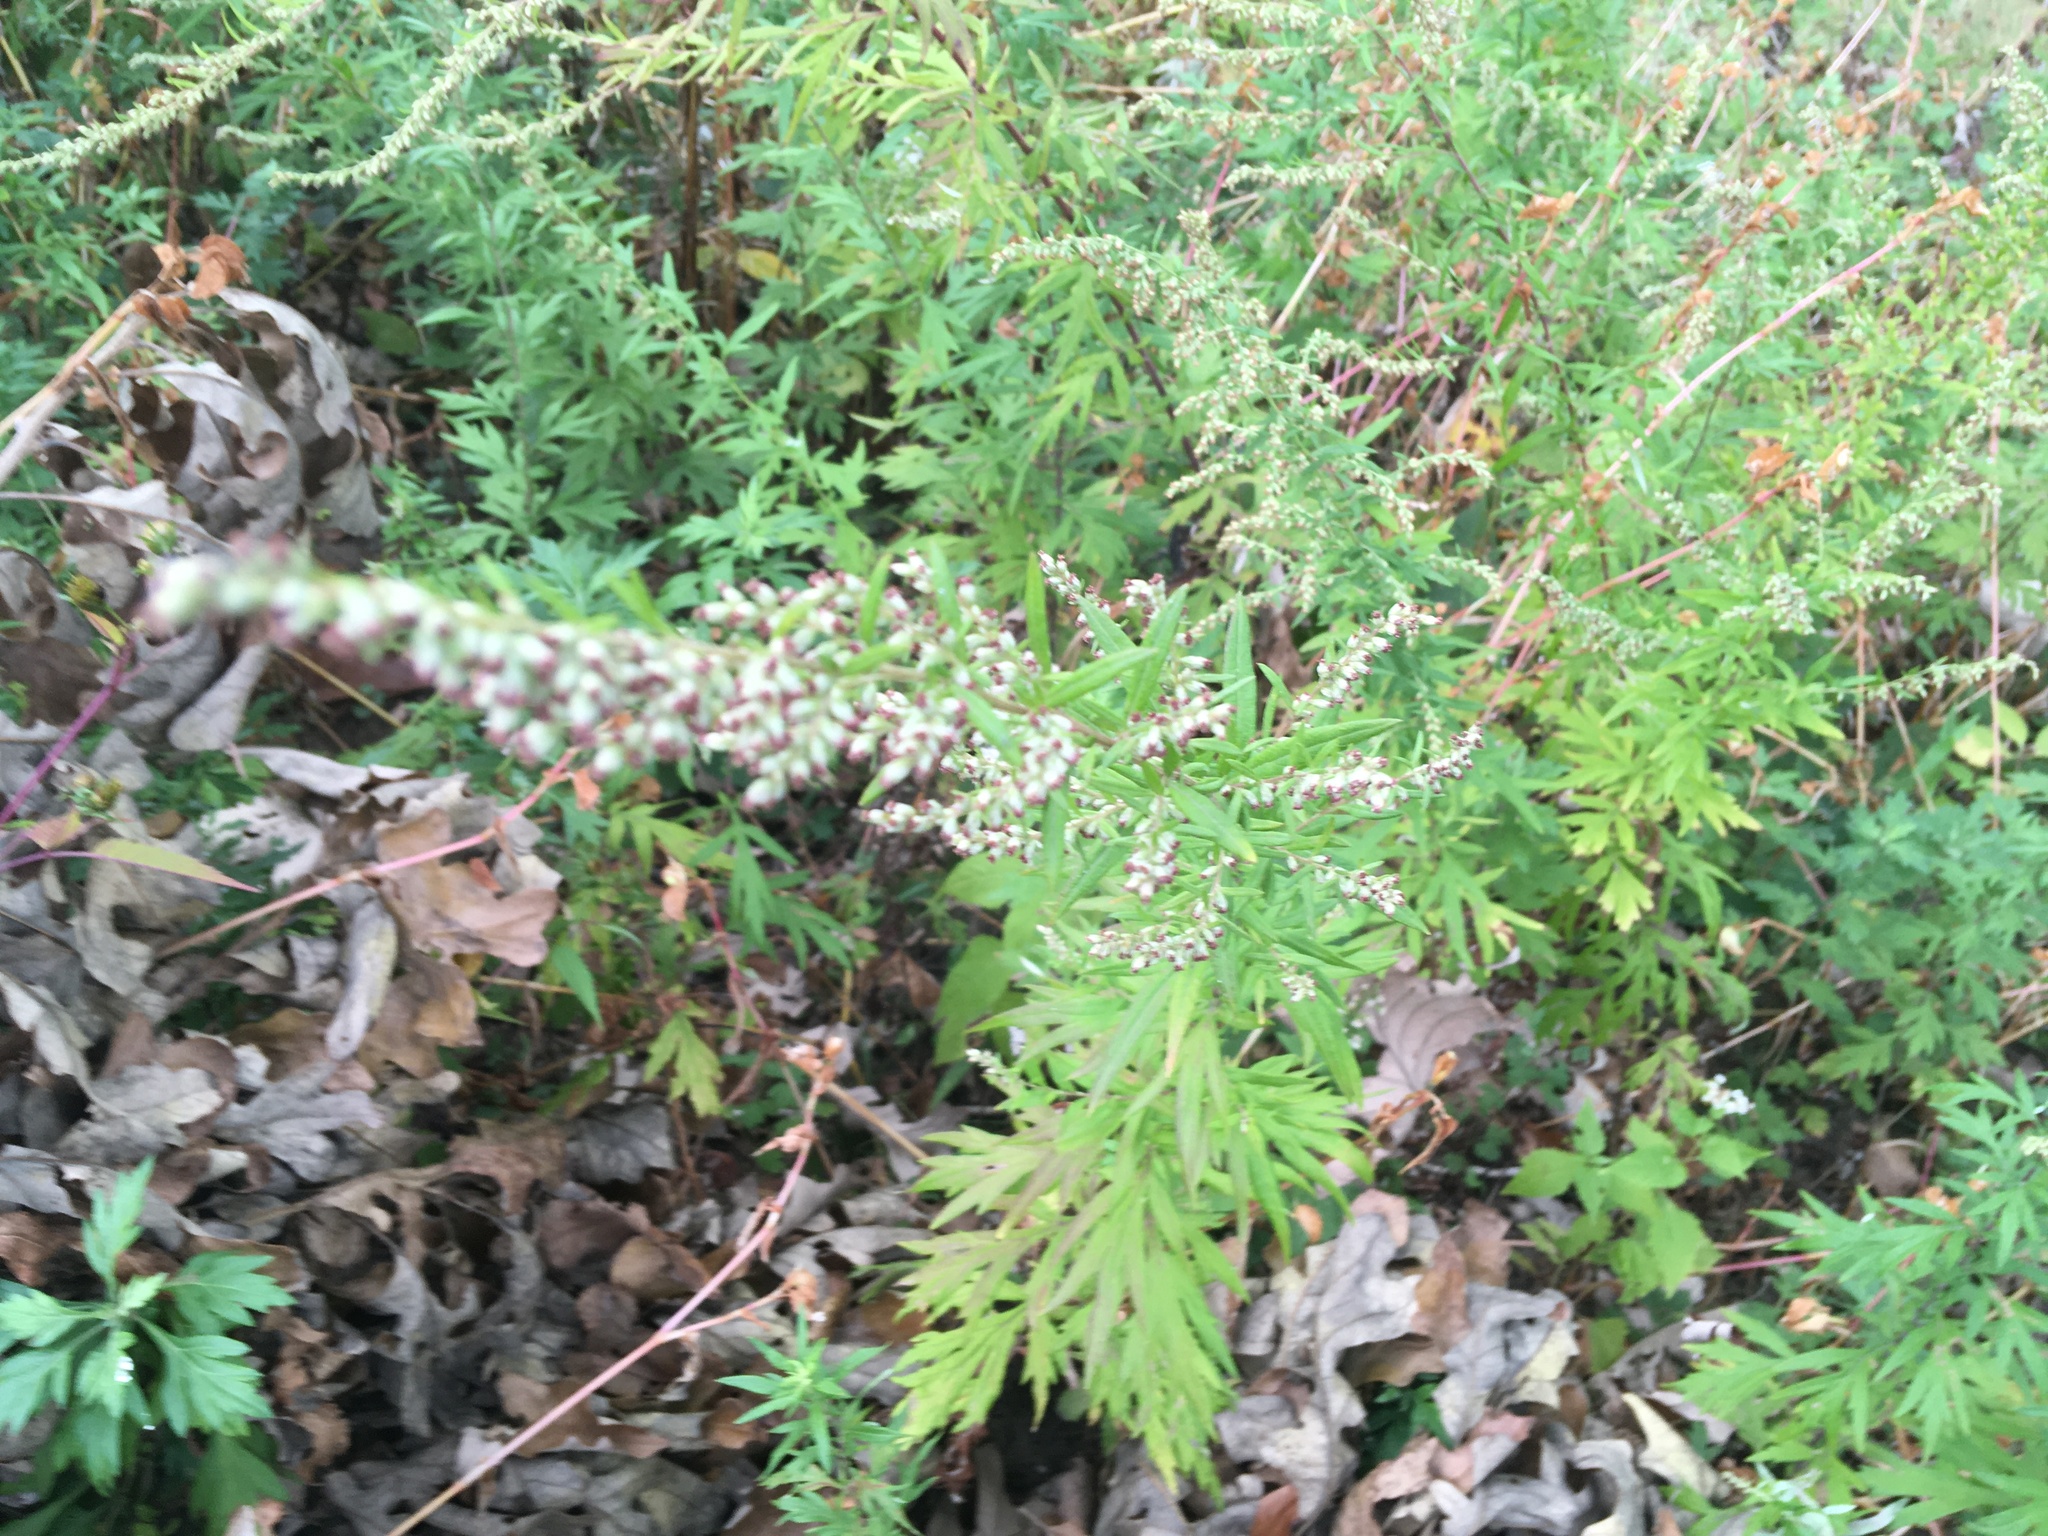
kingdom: Plantae
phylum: Tracheophyta
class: Magnoliopsida
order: Asterales
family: Asteraceae
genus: Artemisia
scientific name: Artemisia vulgaris
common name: Mugwort
